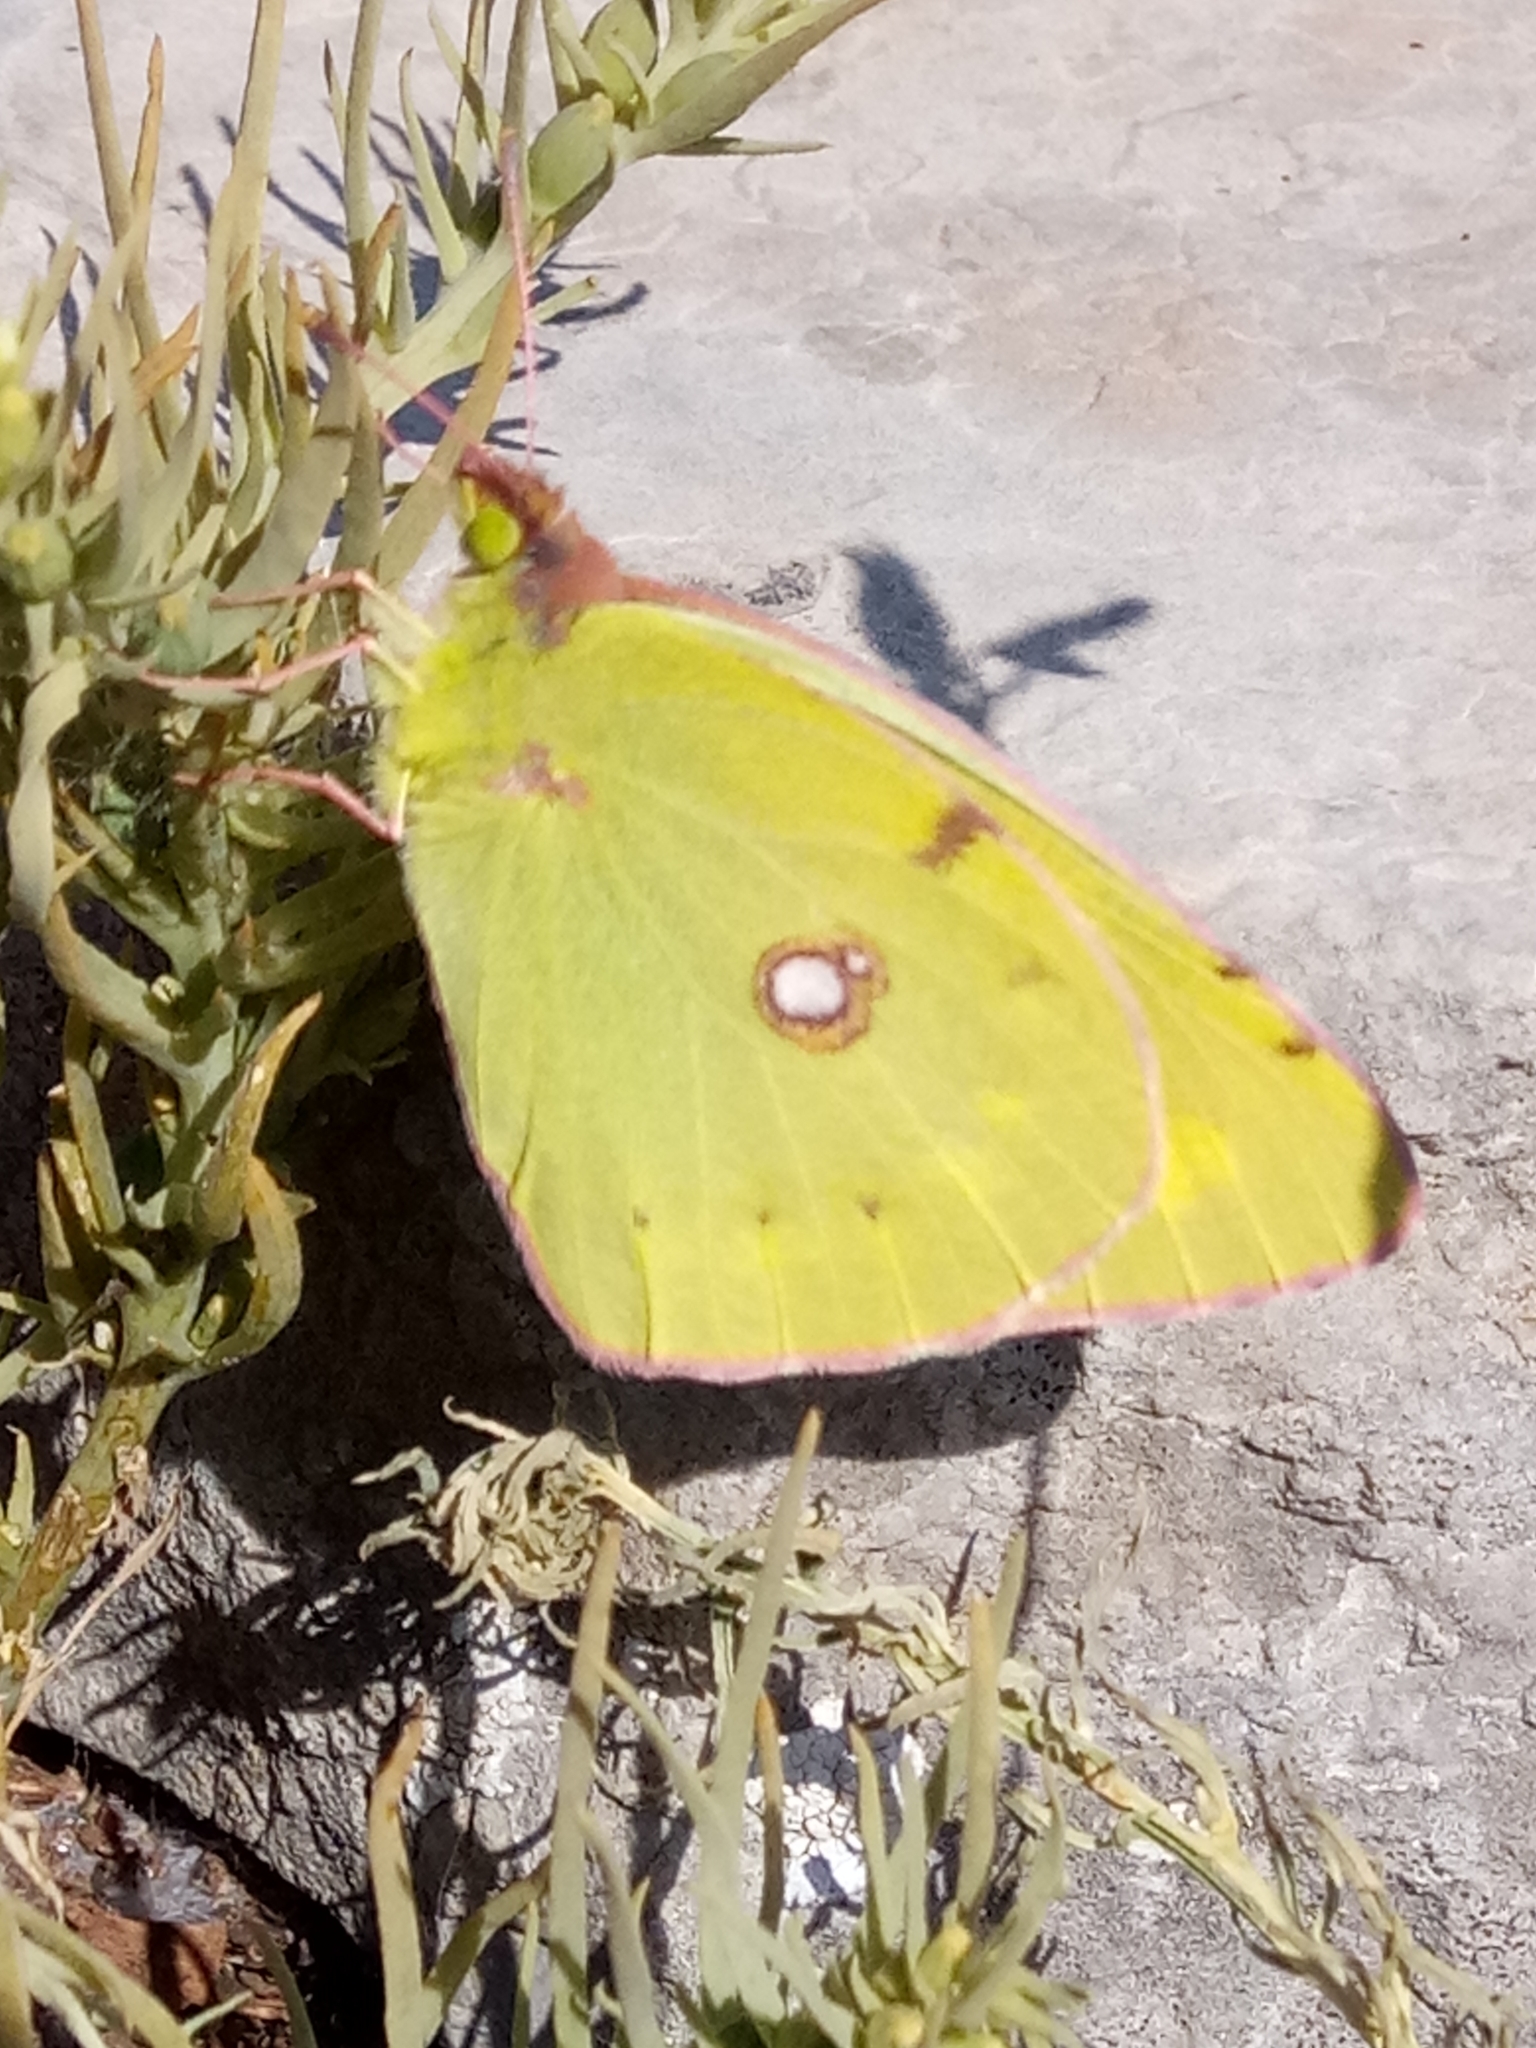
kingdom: Animalia
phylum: Arthropoda
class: Insecta
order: Lepidoptera
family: Pieridae
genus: Colias
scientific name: Colias croceus
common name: Clouded yellow
